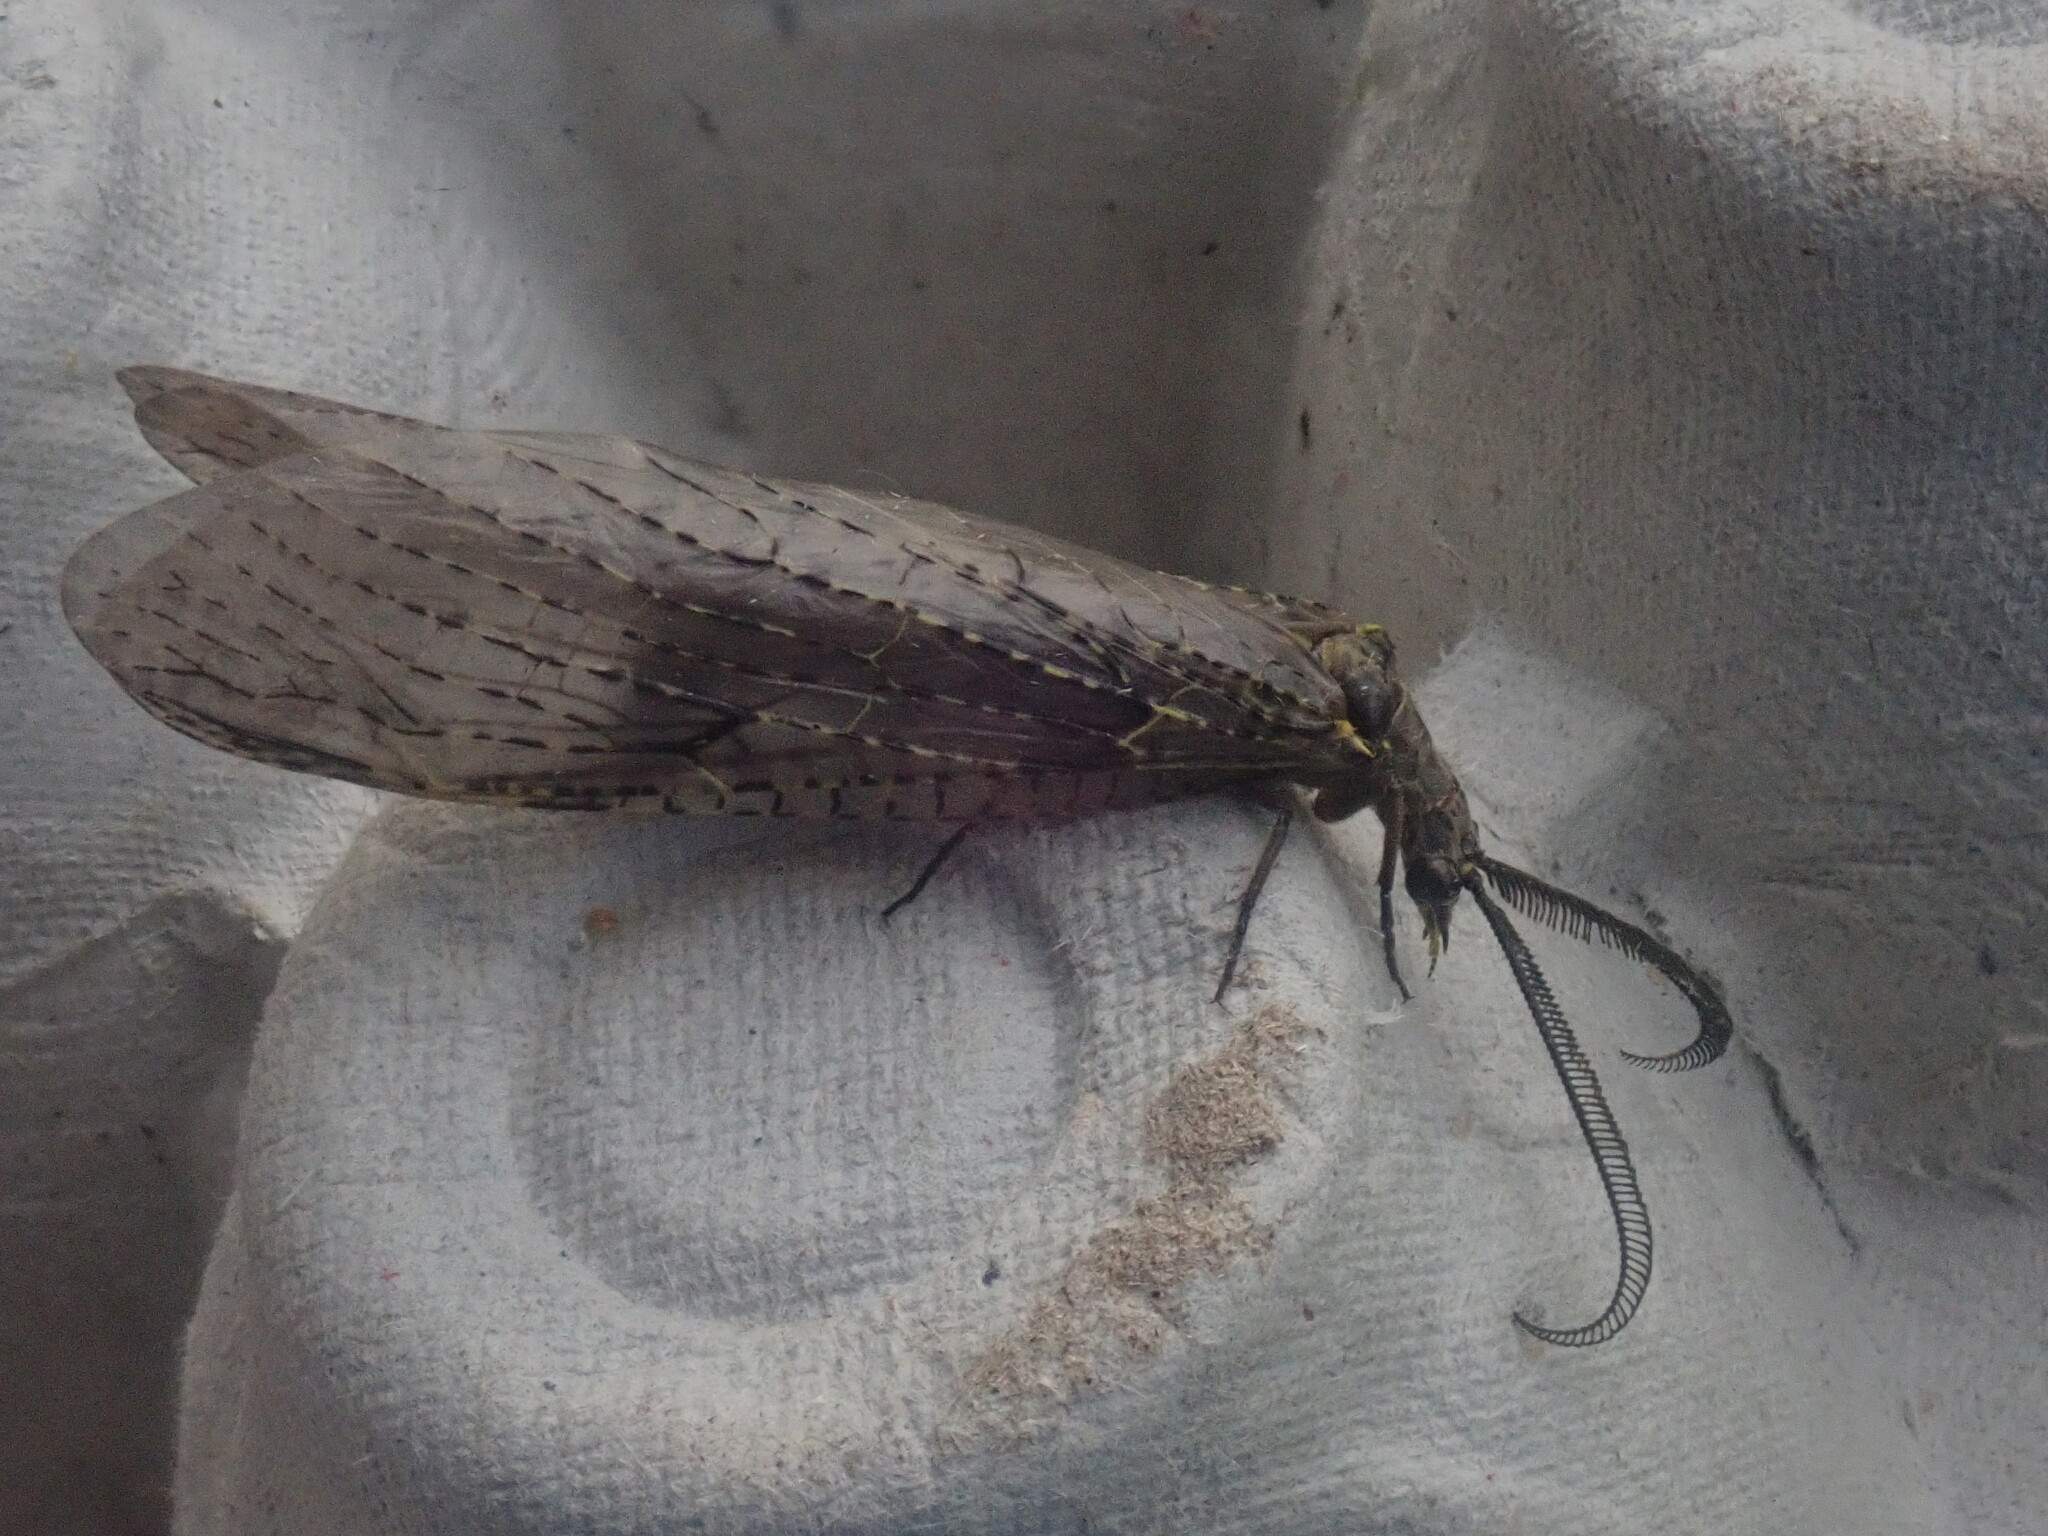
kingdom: Animalia
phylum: Arthropoda
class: Insecta
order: Megaloptera
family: Corydalidae
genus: Chauliodes
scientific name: Chauliodes rastricornis
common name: Spring fishfly
